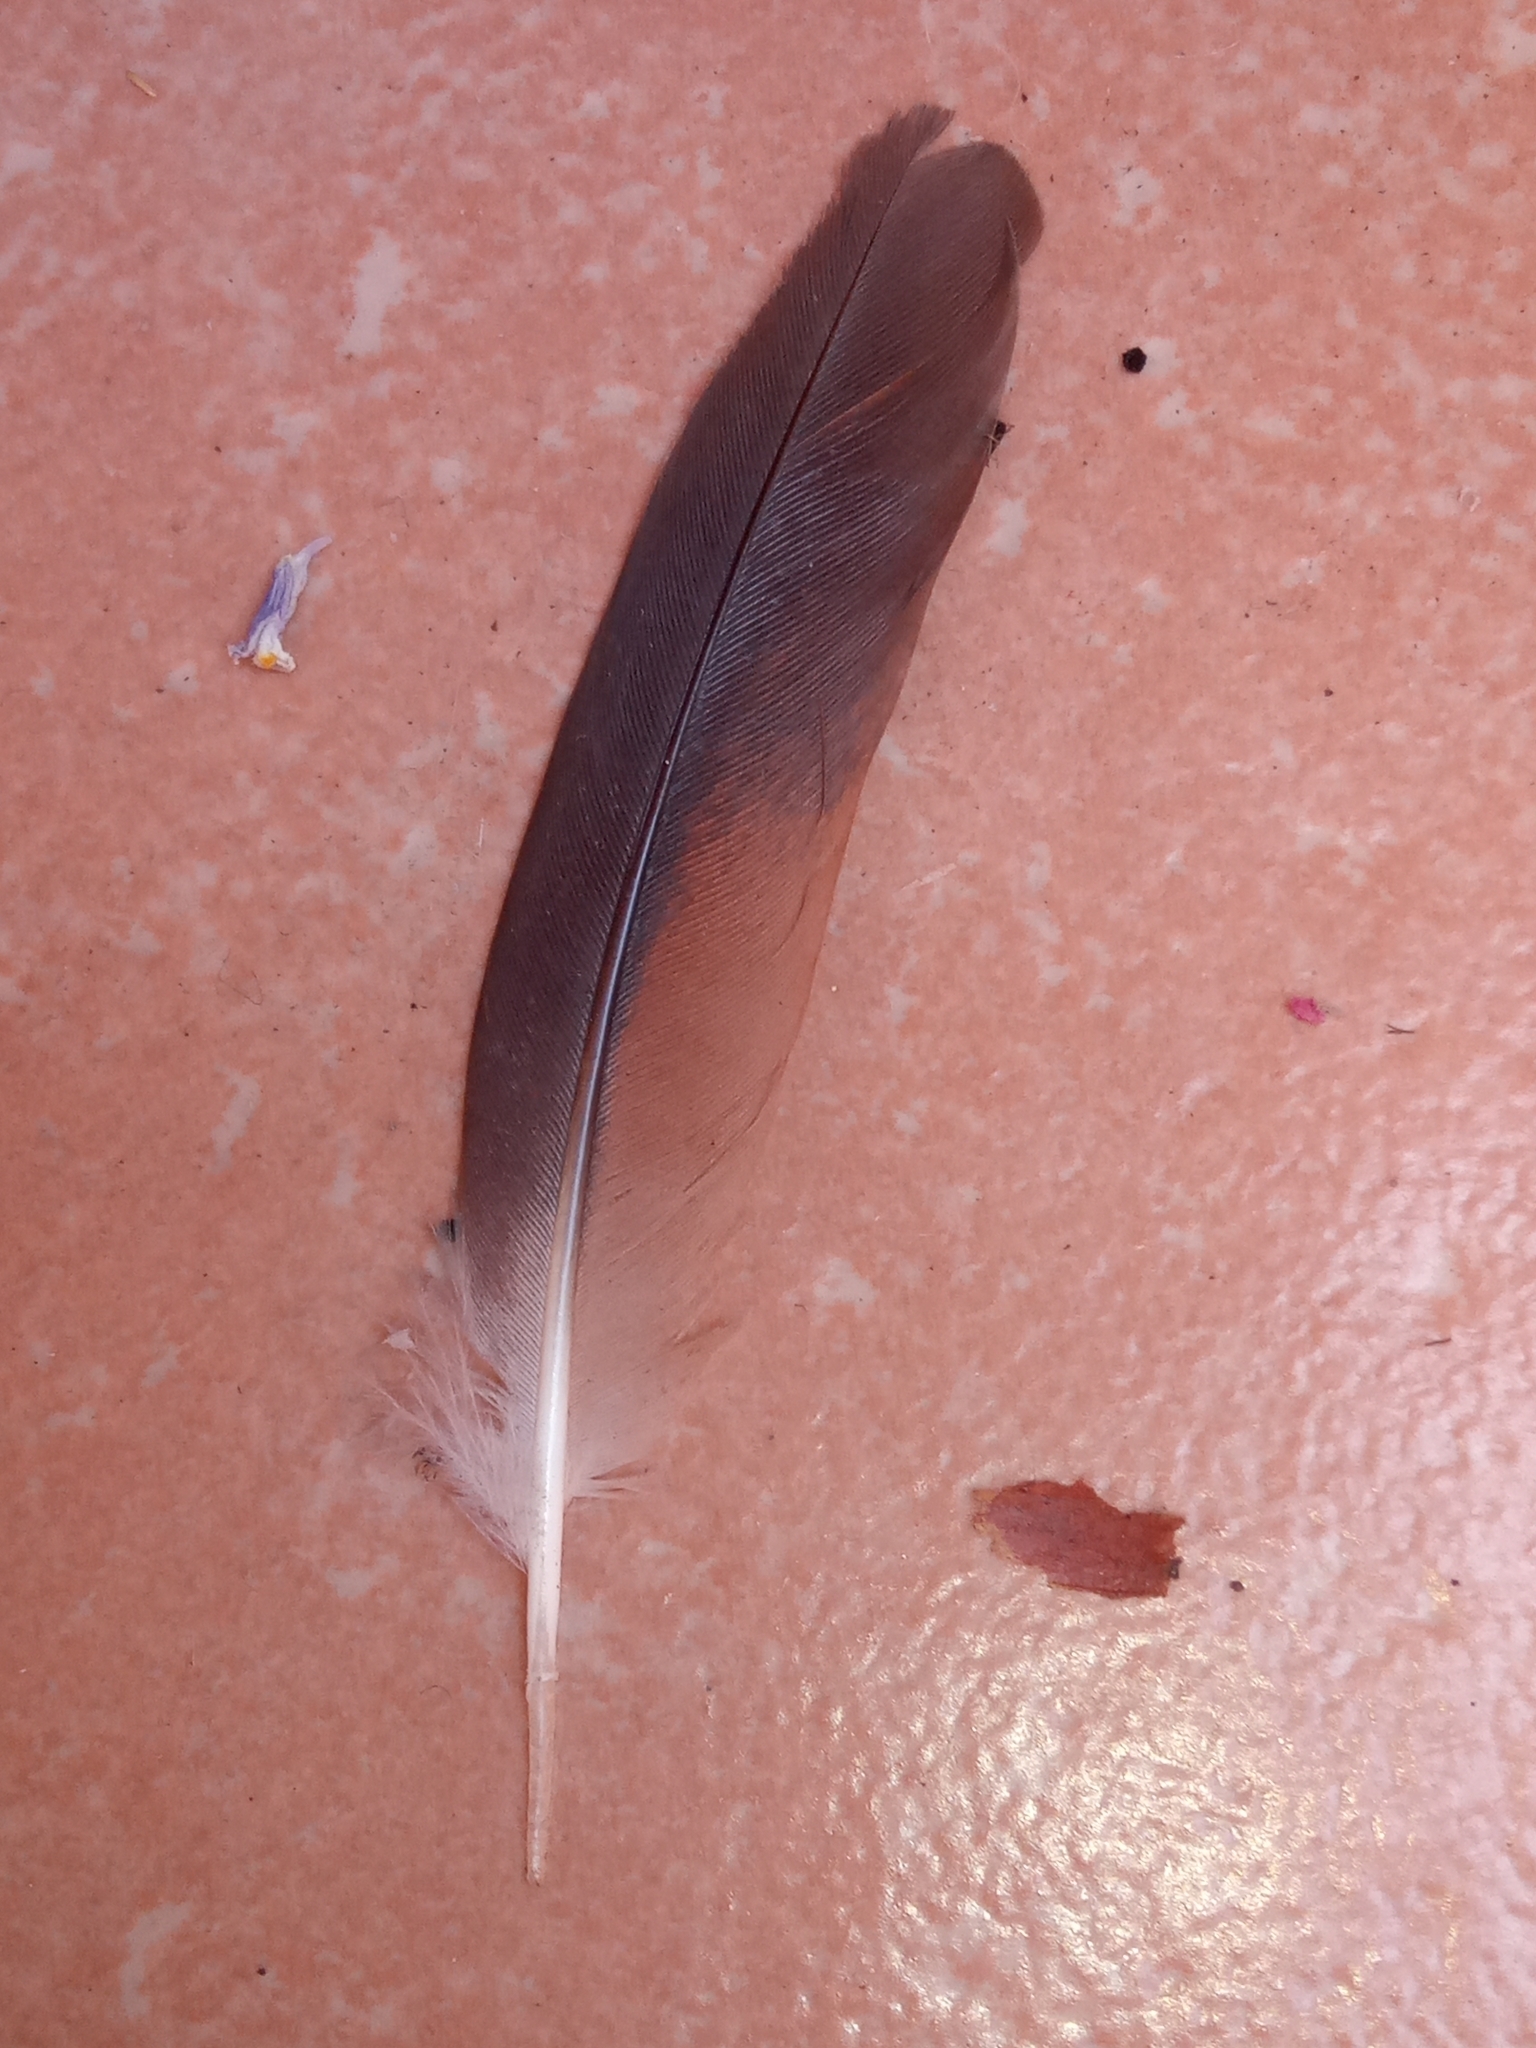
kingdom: Animalia
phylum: Chordata
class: Aves
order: Columbiformes
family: Columbidae
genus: Columbina
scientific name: Columbina inca
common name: Inca dove
